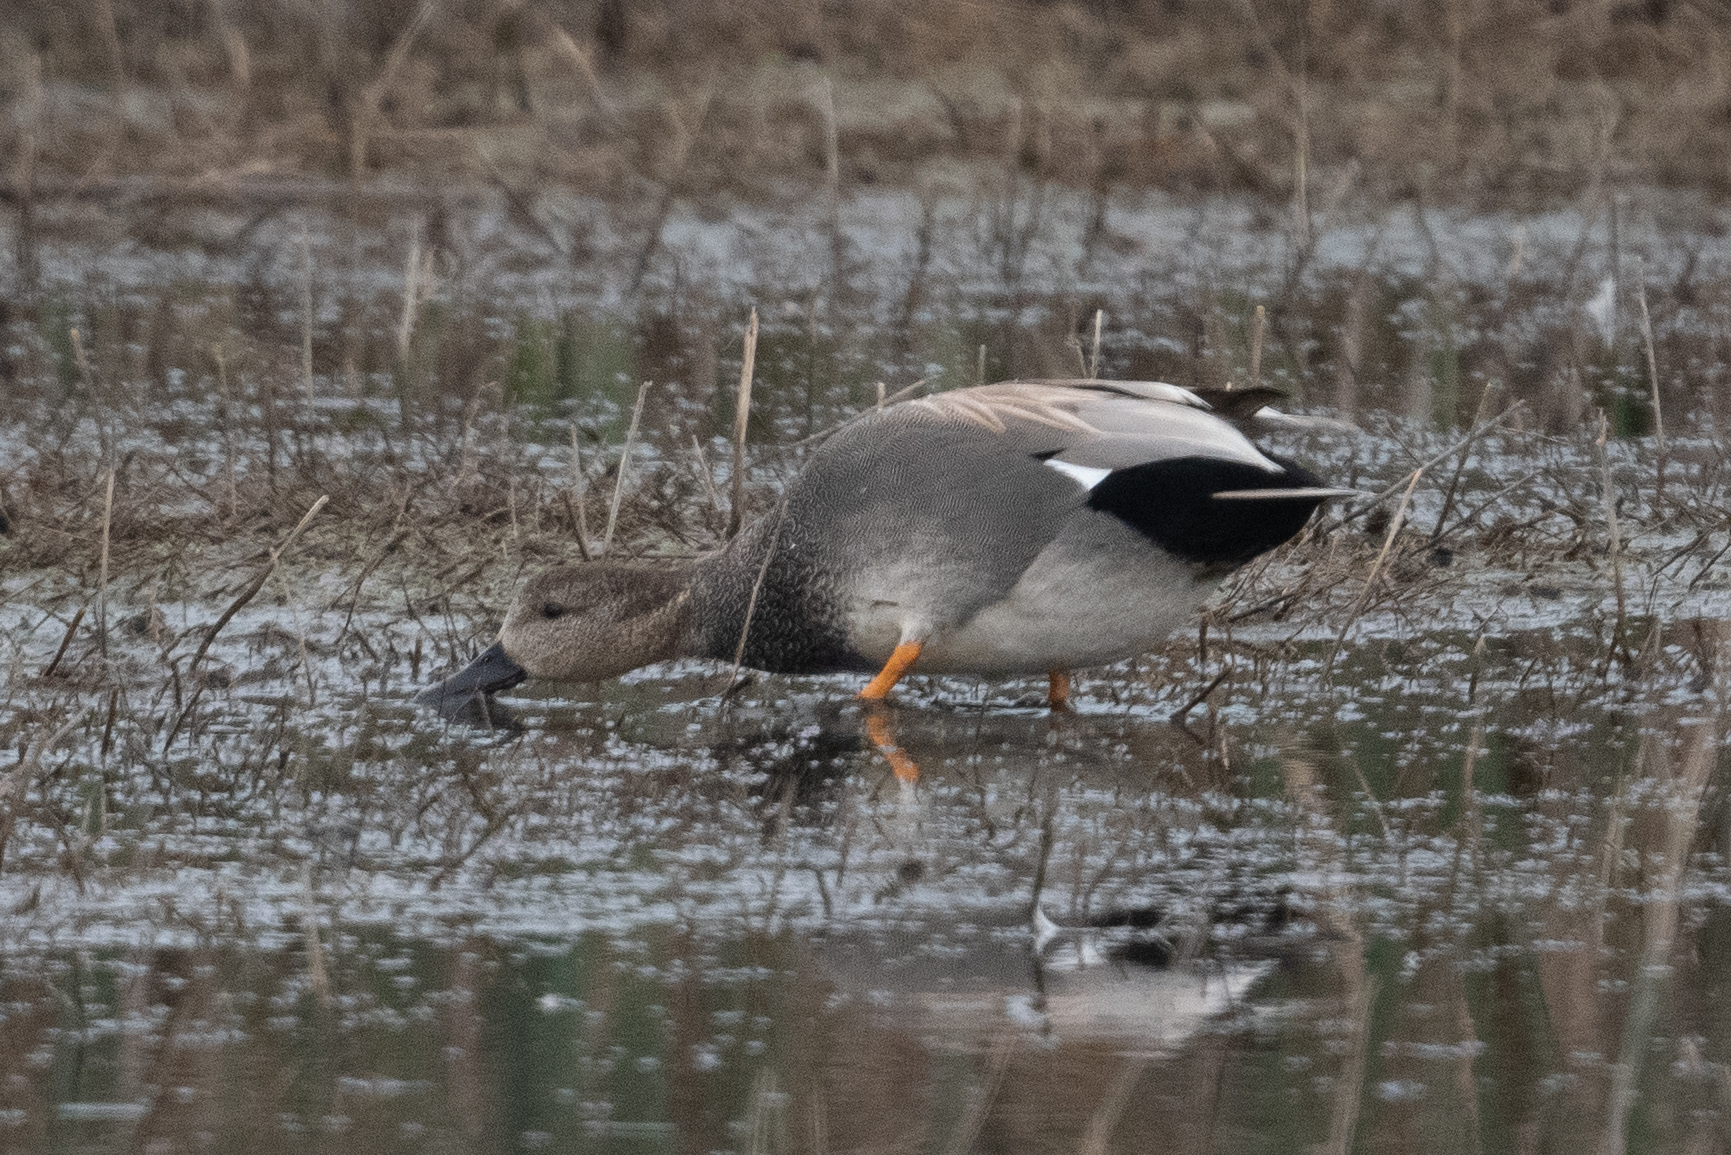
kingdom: Animalia
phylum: Chordata
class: Aves
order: Anseriformes
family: Anatidae
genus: Mareca
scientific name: Mareca strepera
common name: Gadwall
